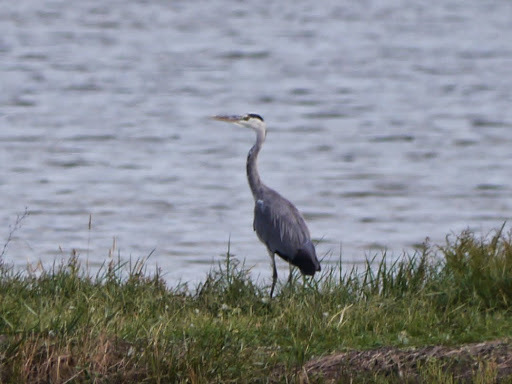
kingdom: Animalia
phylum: Chordata
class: Aves
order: Pelecaniformes
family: Ardeidae
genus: Ardea
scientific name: Ardea cinerea
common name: Grey heron
